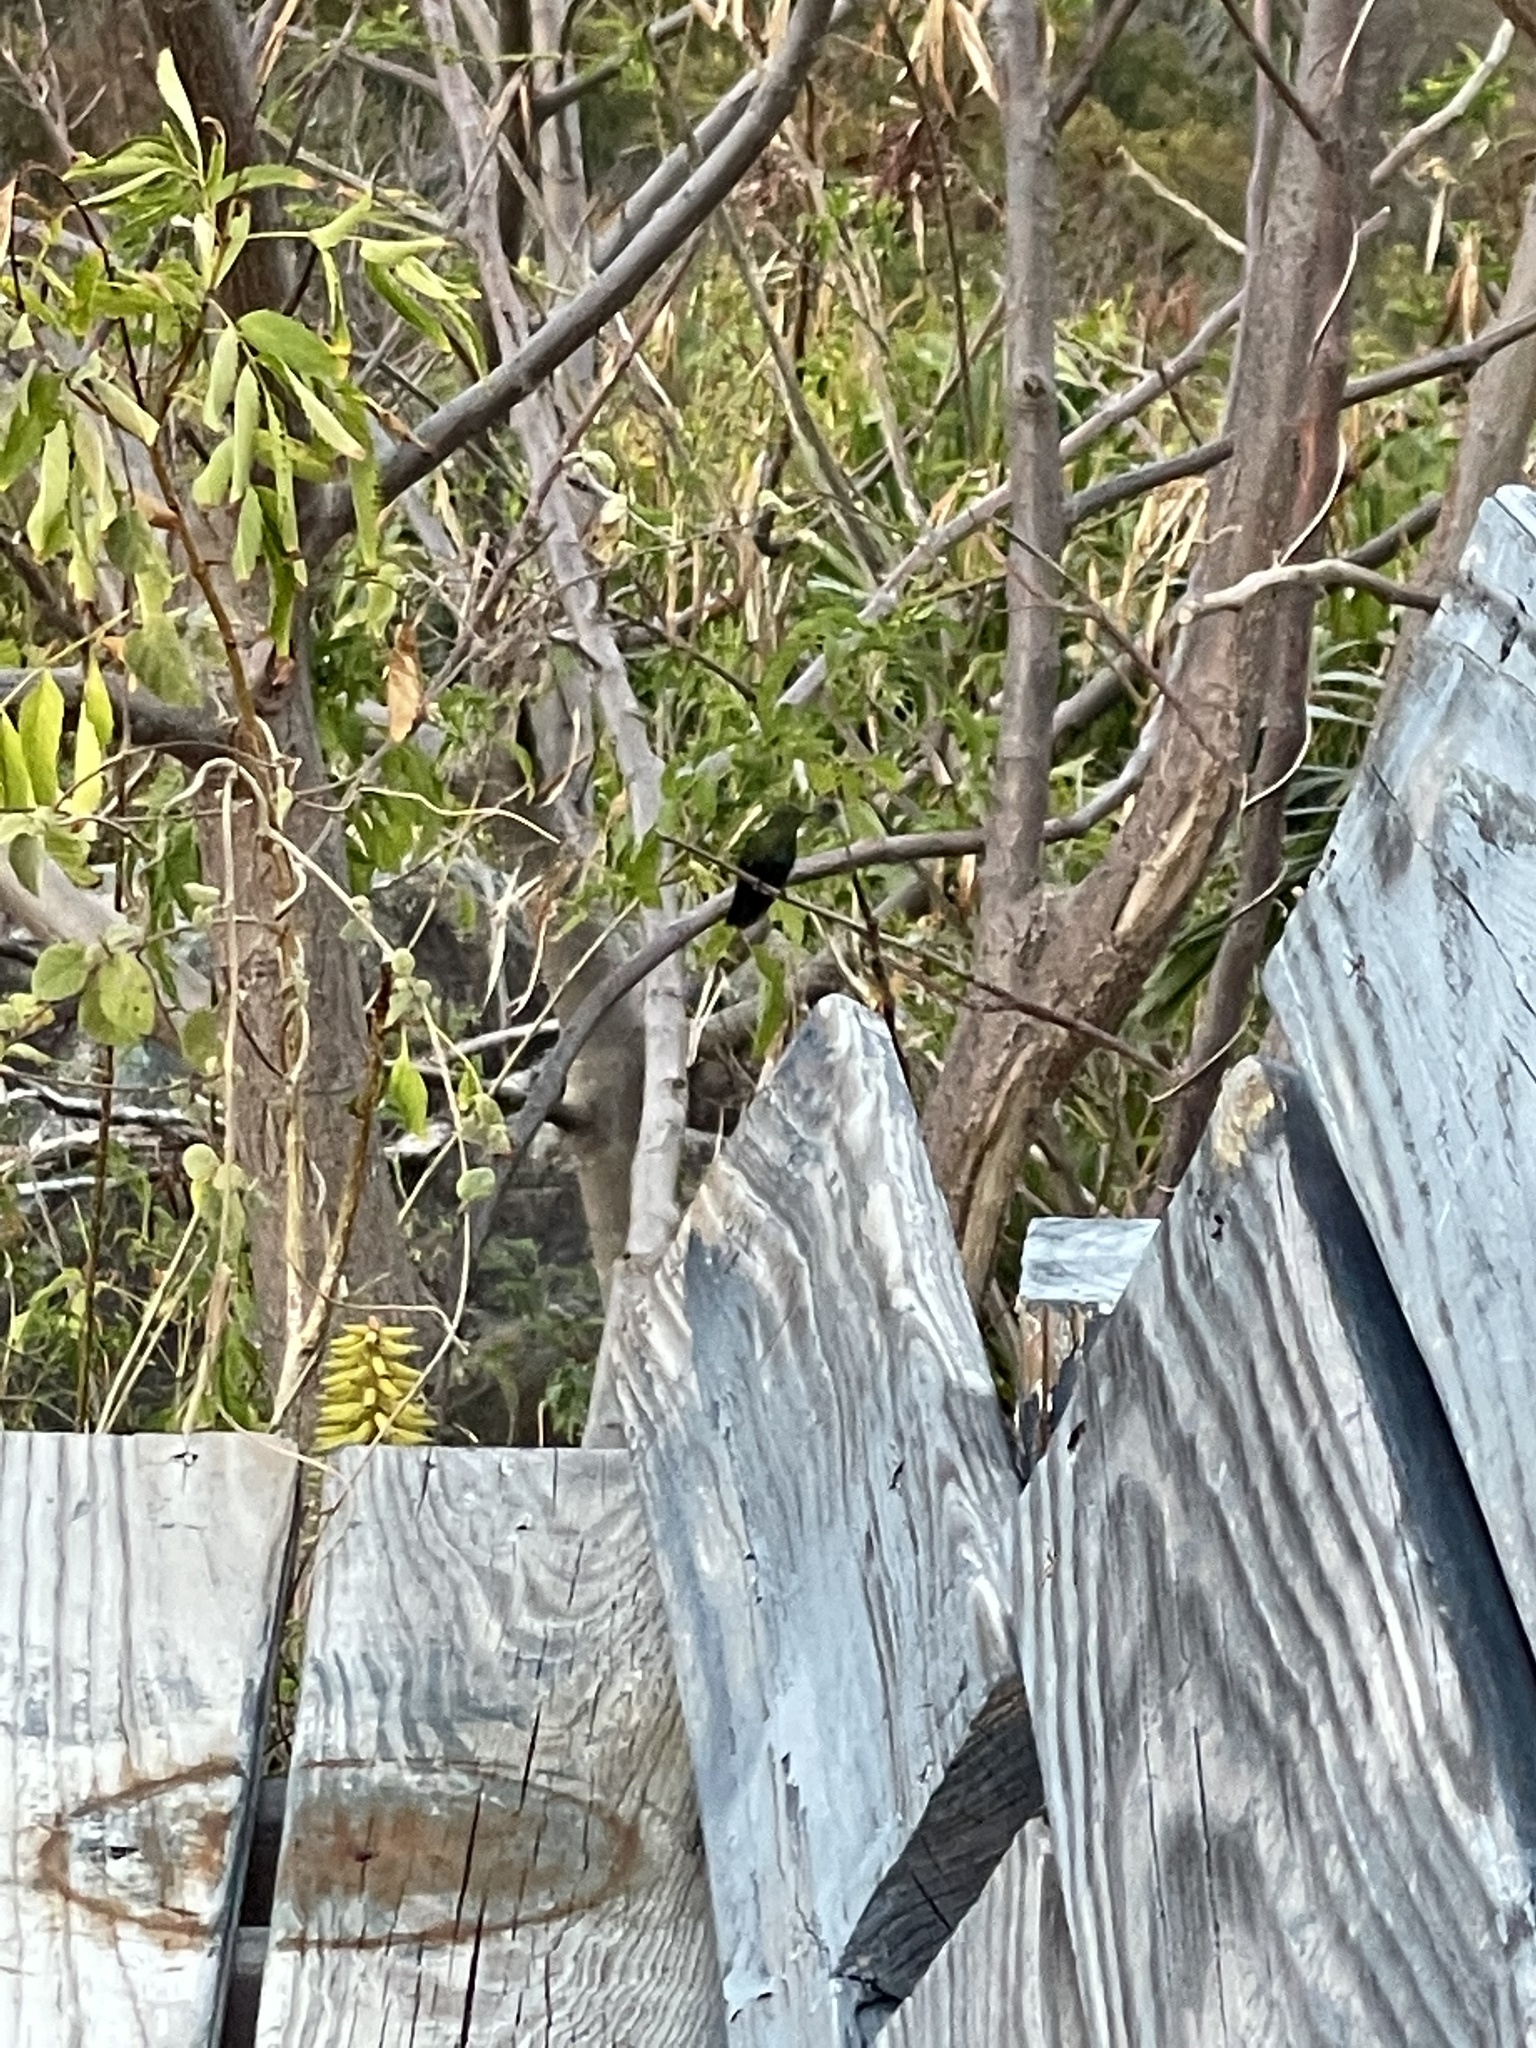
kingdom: Animalia
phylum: Chordata
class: Aves
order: Apodiformes
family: Trochilidae
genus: Eulampis
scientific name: Eulampis holosericeus
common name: Green-throated carib
